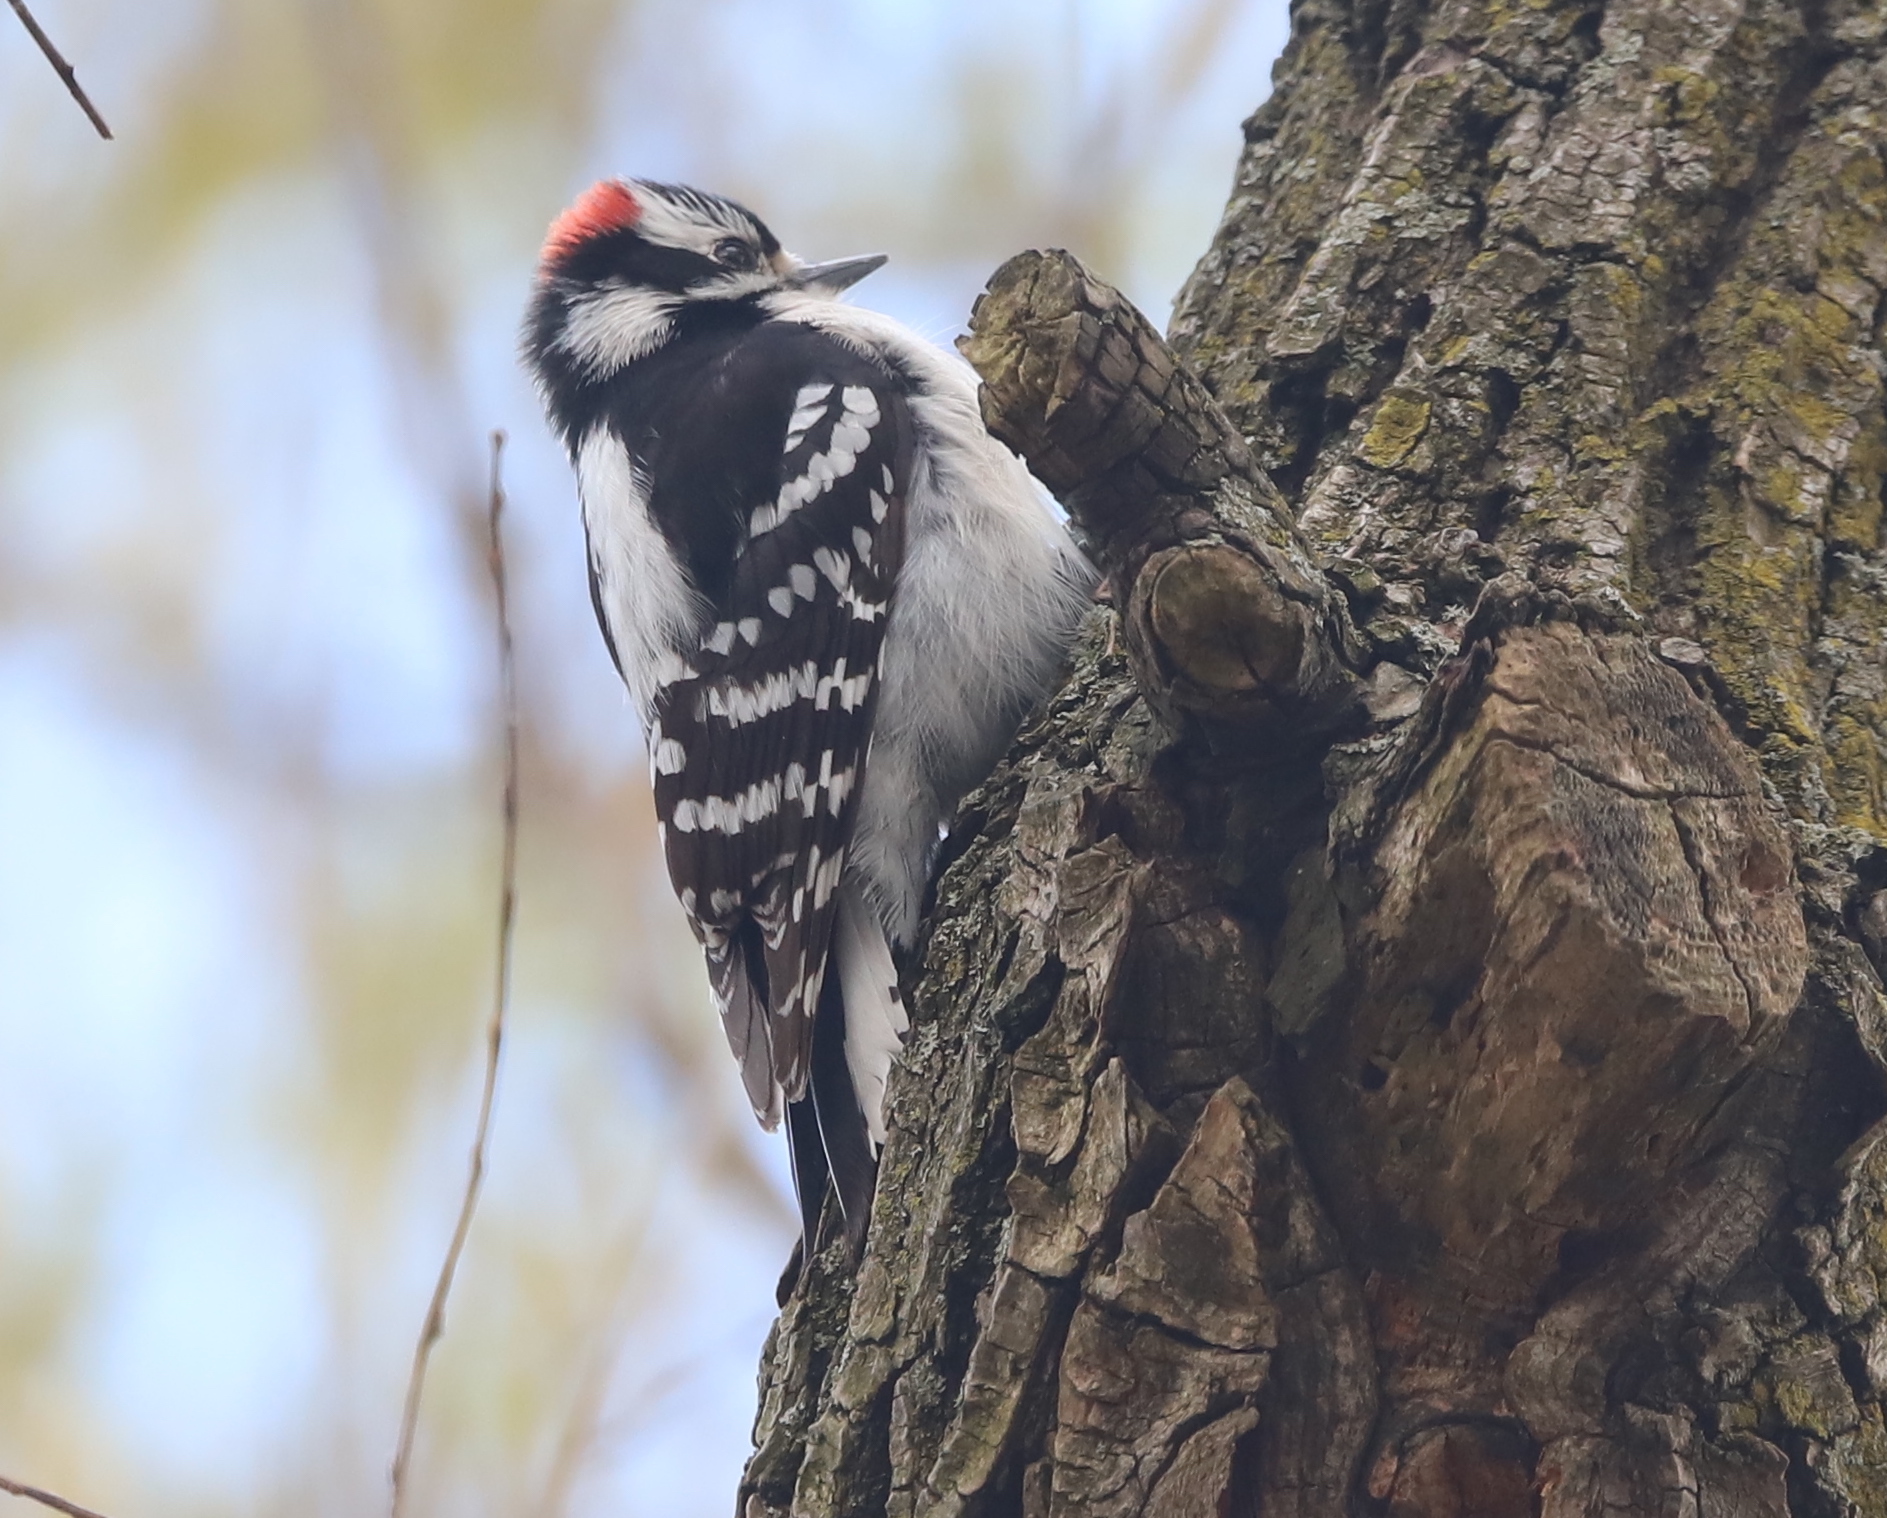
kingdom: Animalia
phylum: Chordata
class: Aves
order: Piciformes
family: Picidae
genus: Dryobates
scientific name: Dryobates pubescens
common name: Downy woodpecker
